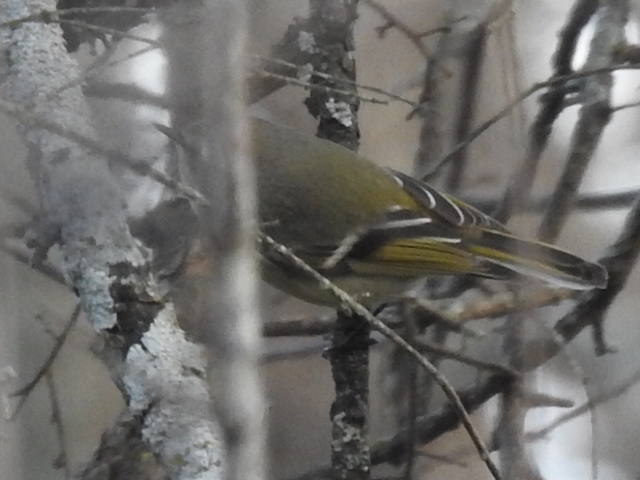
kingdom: Animalia
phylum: Chordata
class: Aves
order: Passeriformes
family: Regulidae
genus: Regulus
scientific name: Regulus calendula
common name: Ruby-crowned kinglet
